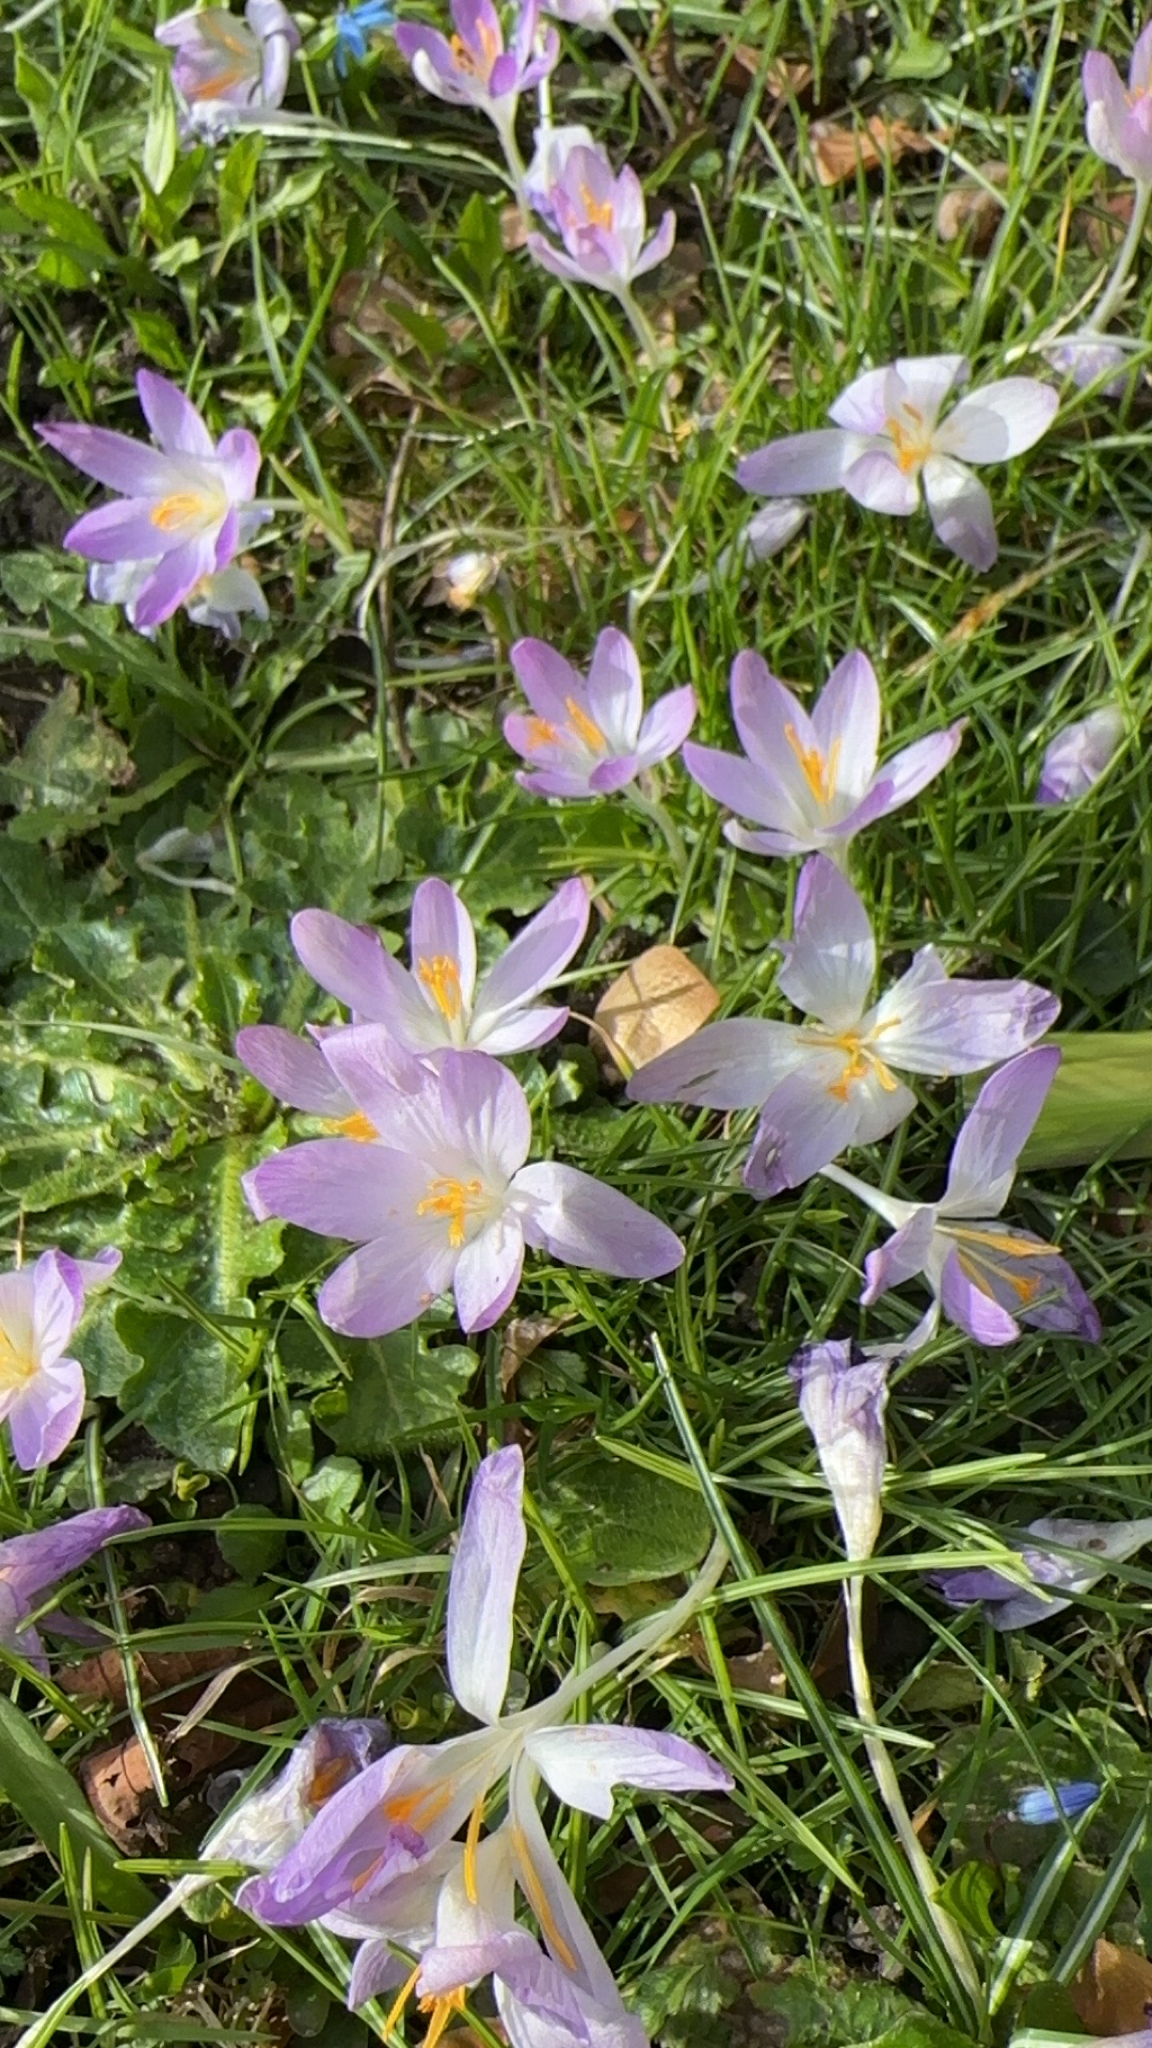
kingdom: Plantae
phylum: Tracheophyta
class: Liliopsida
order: Asparagales
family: Iridaceae
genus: Crocus
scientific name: Crocus tommasinianus
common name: Early crocus
